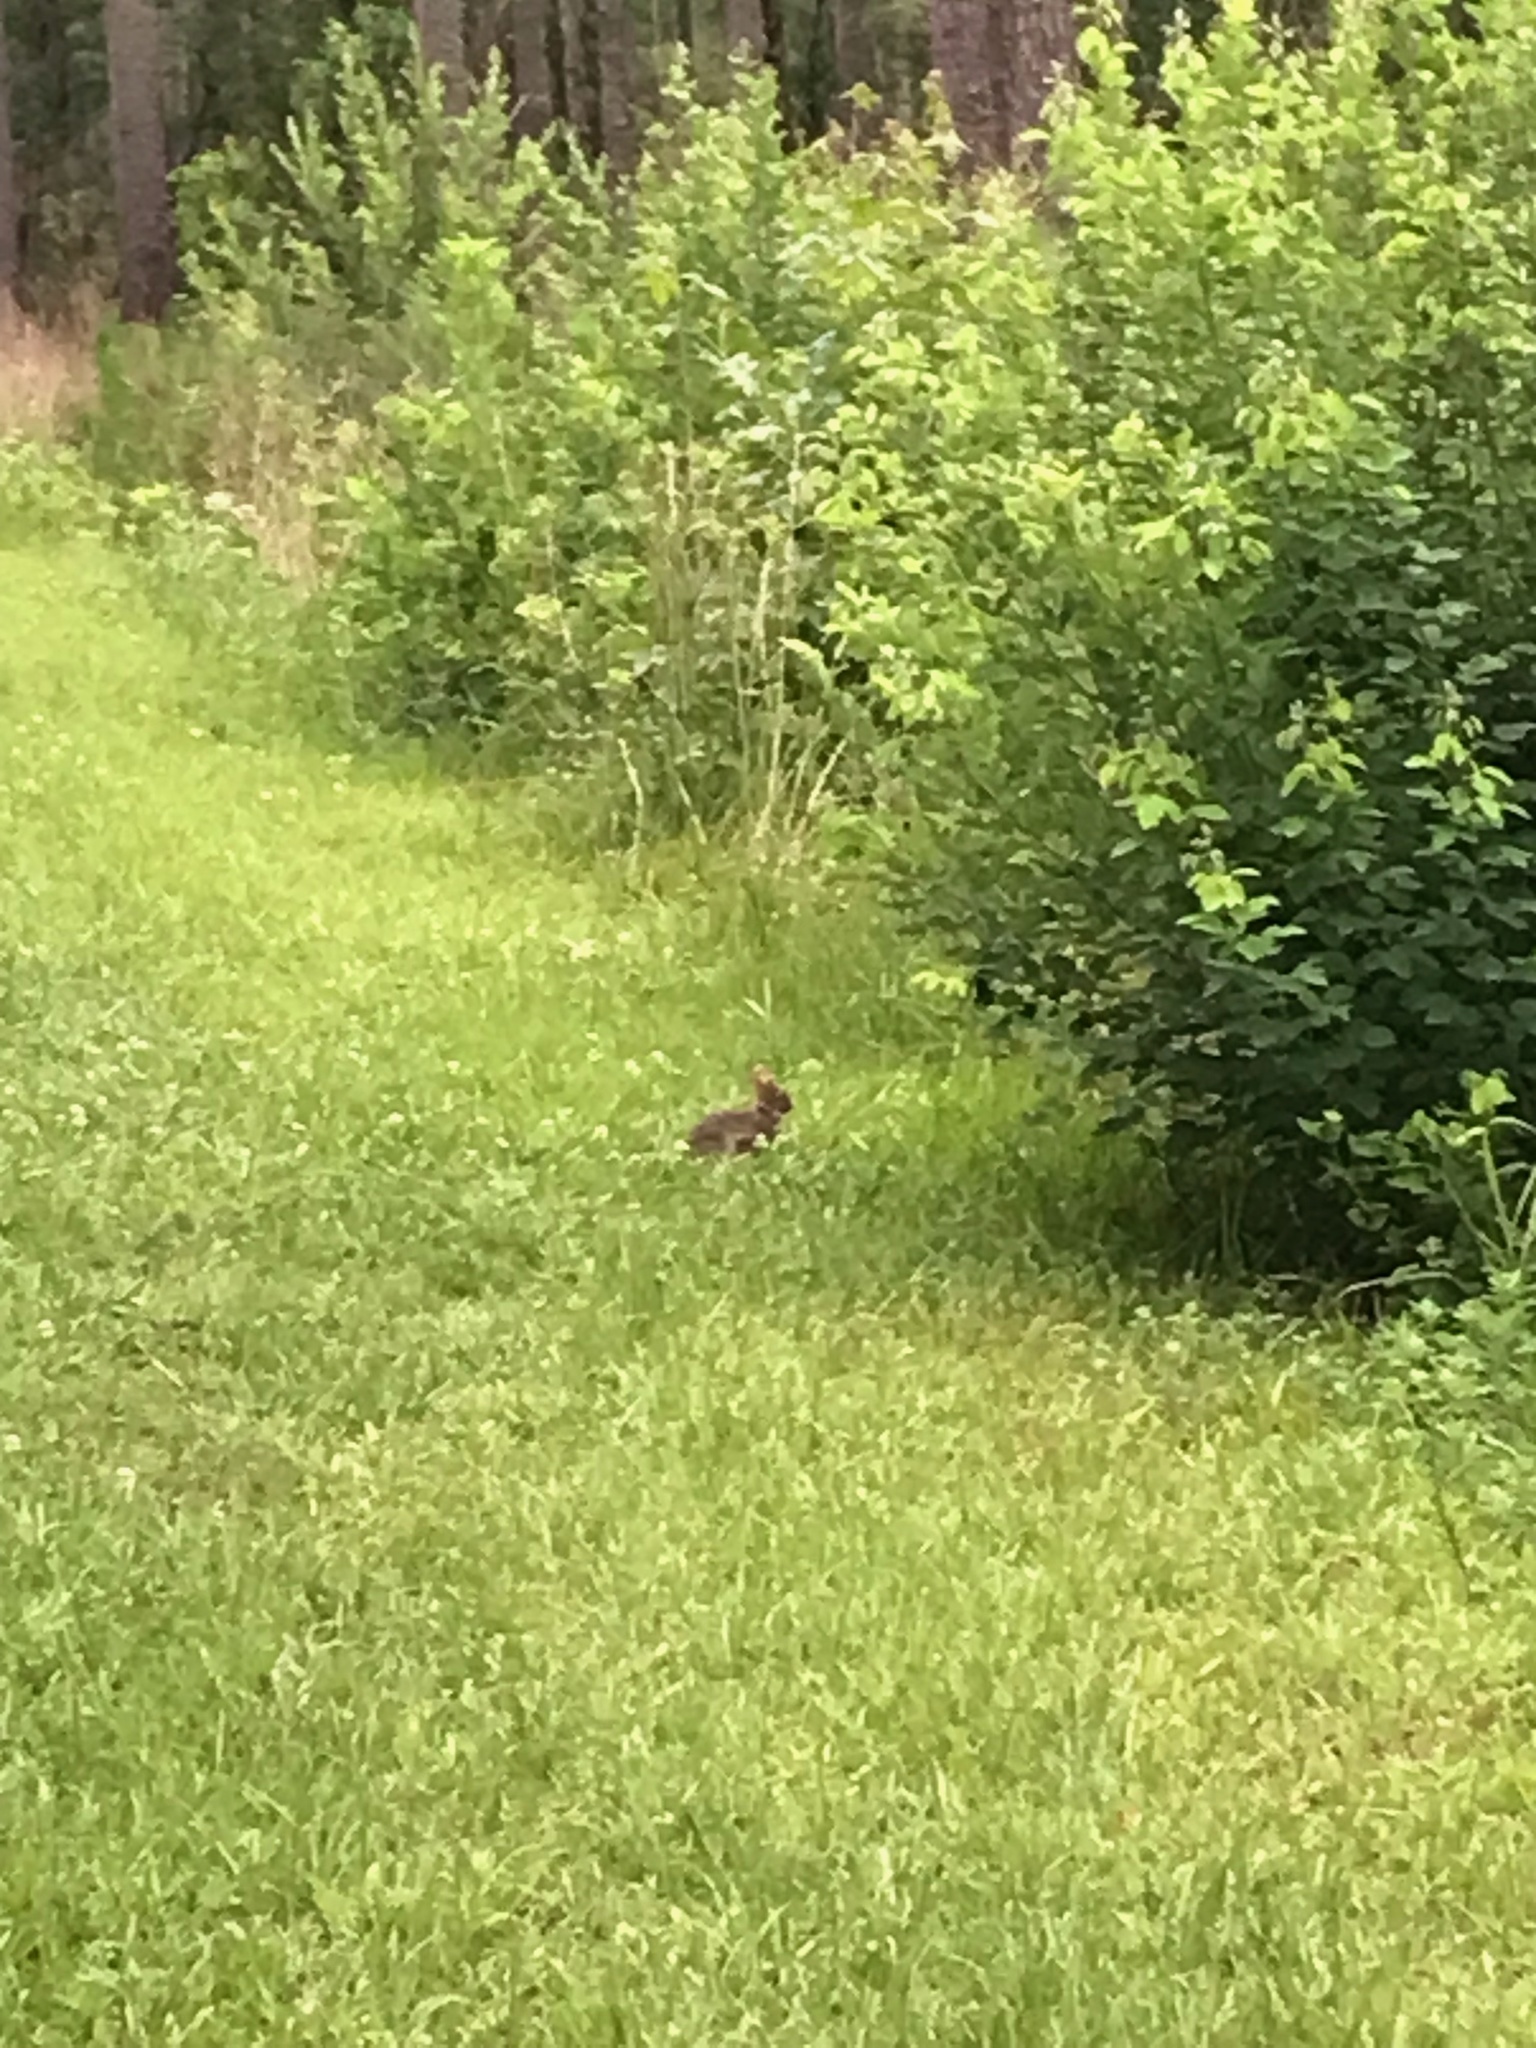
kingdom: Animalia
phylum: Chordata
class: Mammalia
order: Lagomorpha
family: Leporidae
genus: Sylvilagus
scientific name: Sylvilagus floridanus
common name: Eastern cottontail
